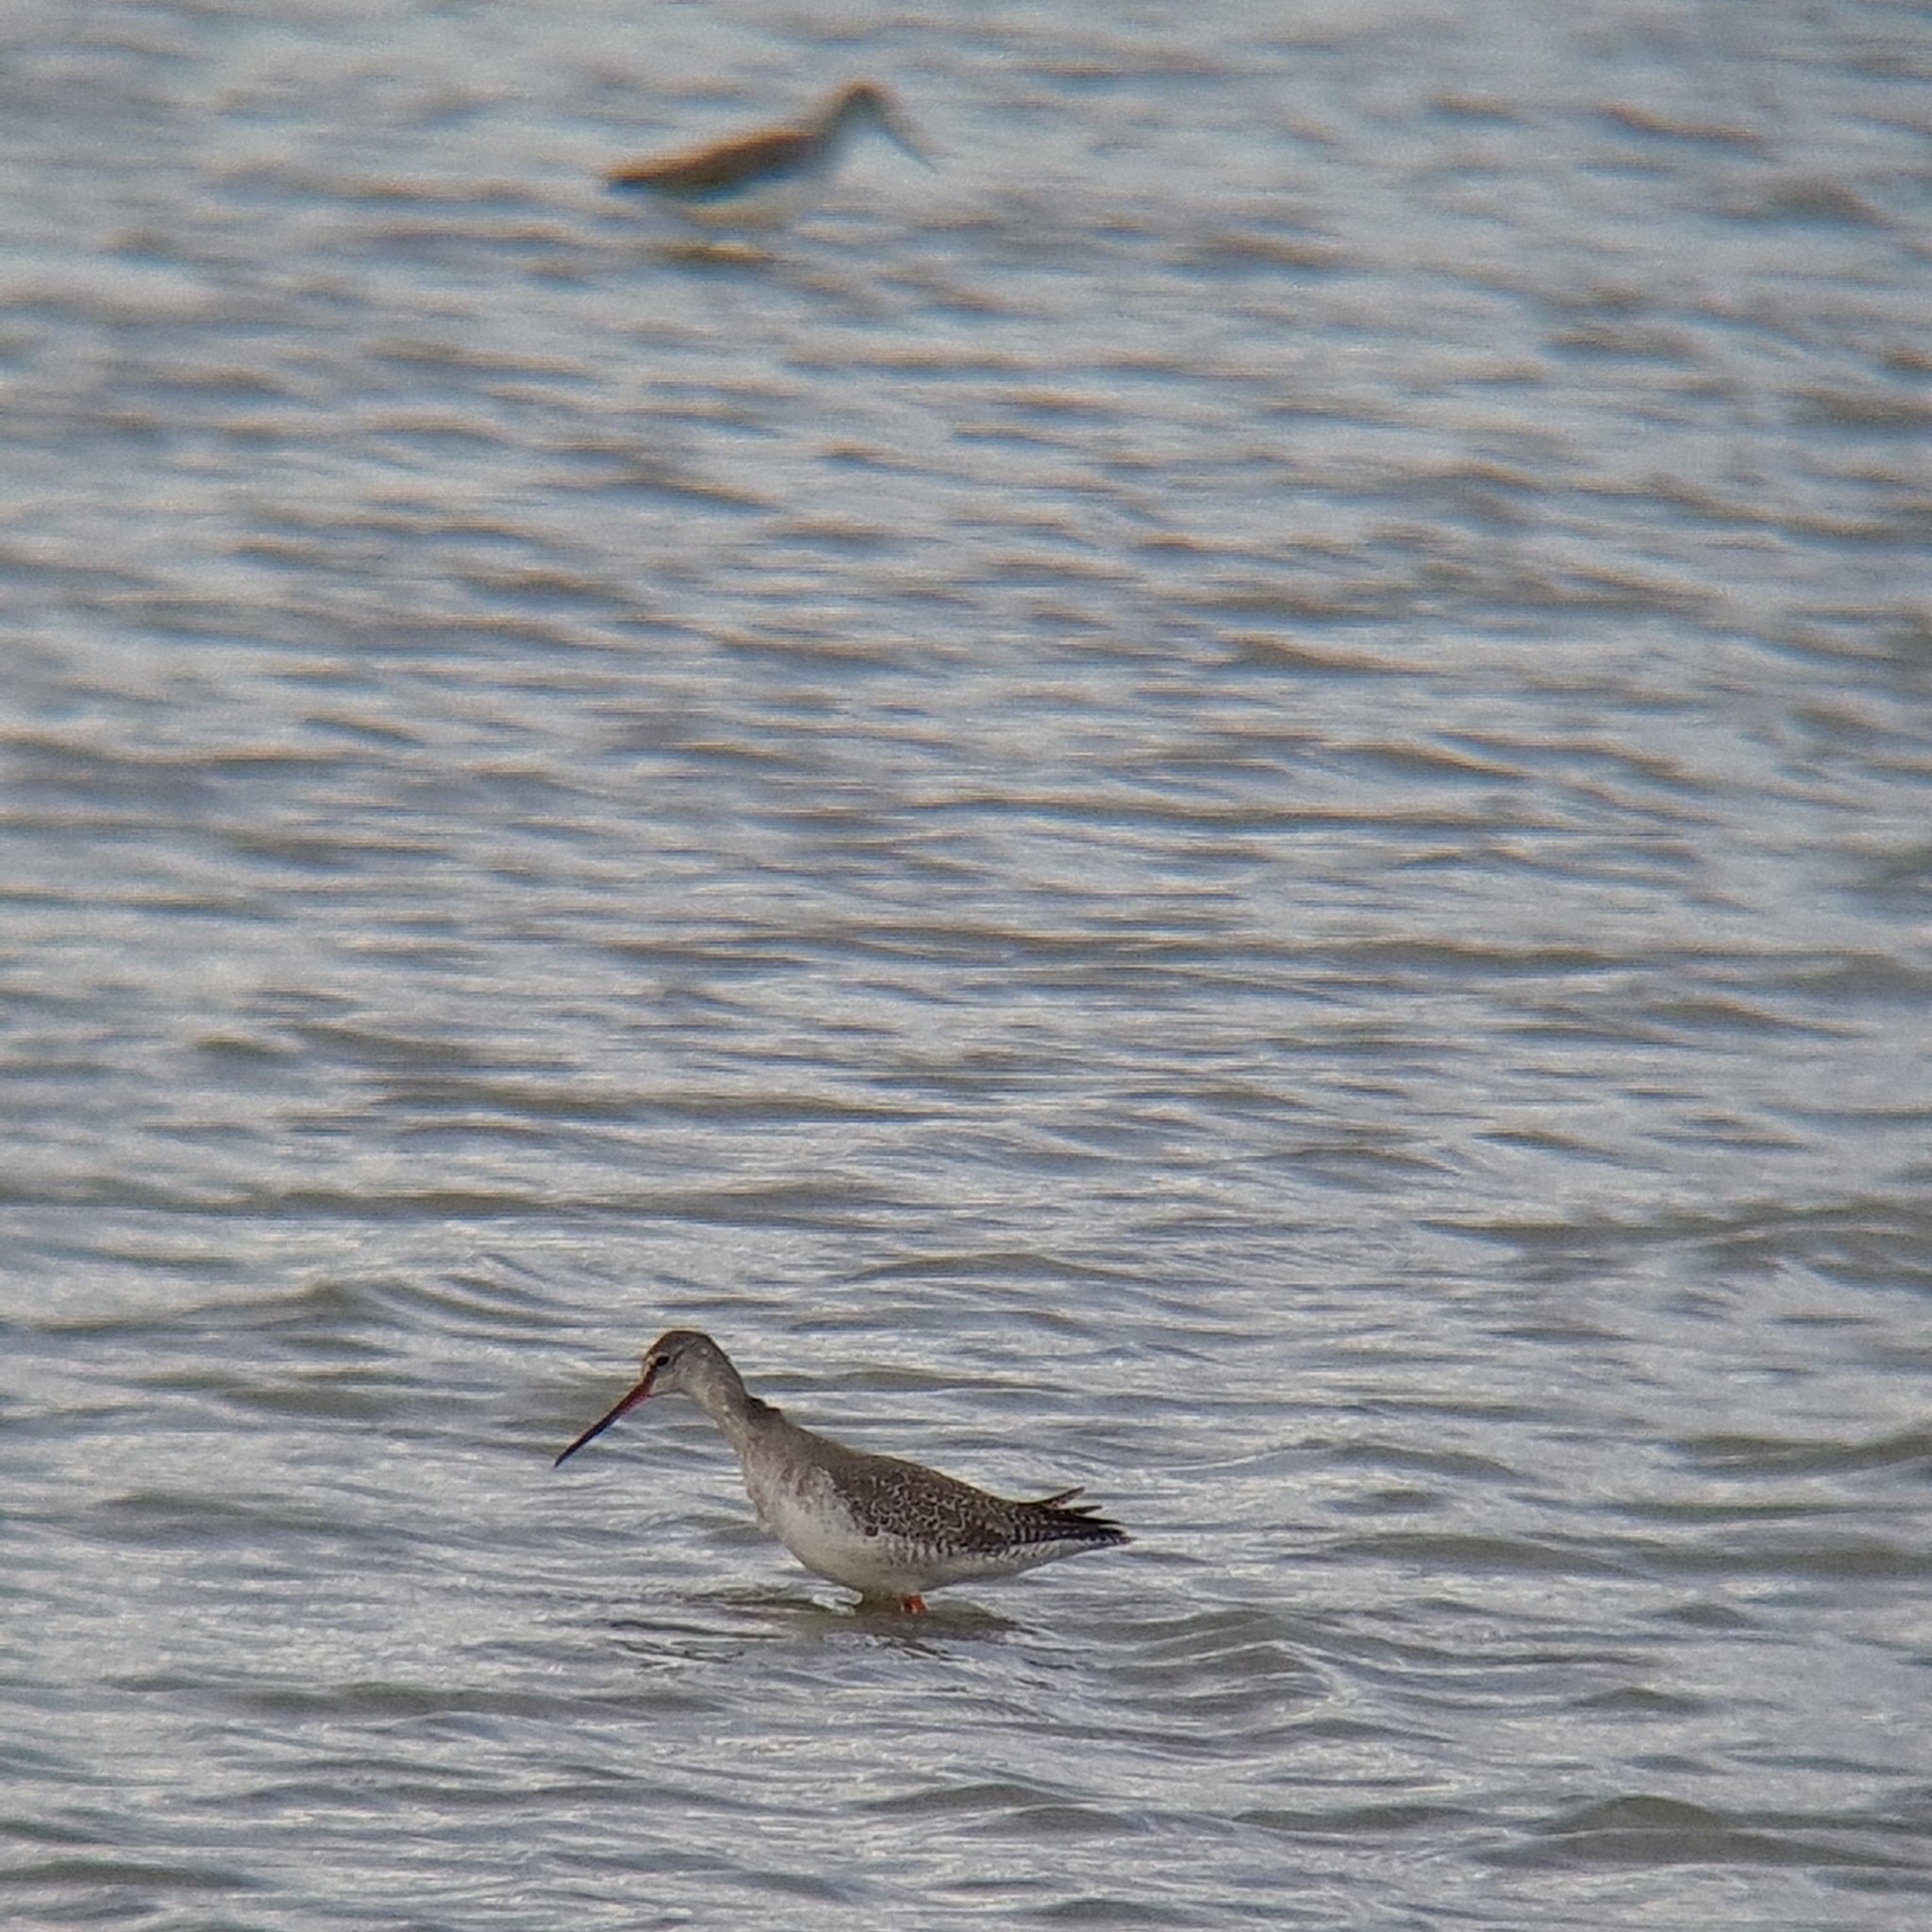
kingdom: Animalia
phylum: Chordata
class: Aves
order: Charadriiformes
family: Scolopacidae
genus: Tringa
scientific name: Tringa erythropus
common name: Spotted redshank
